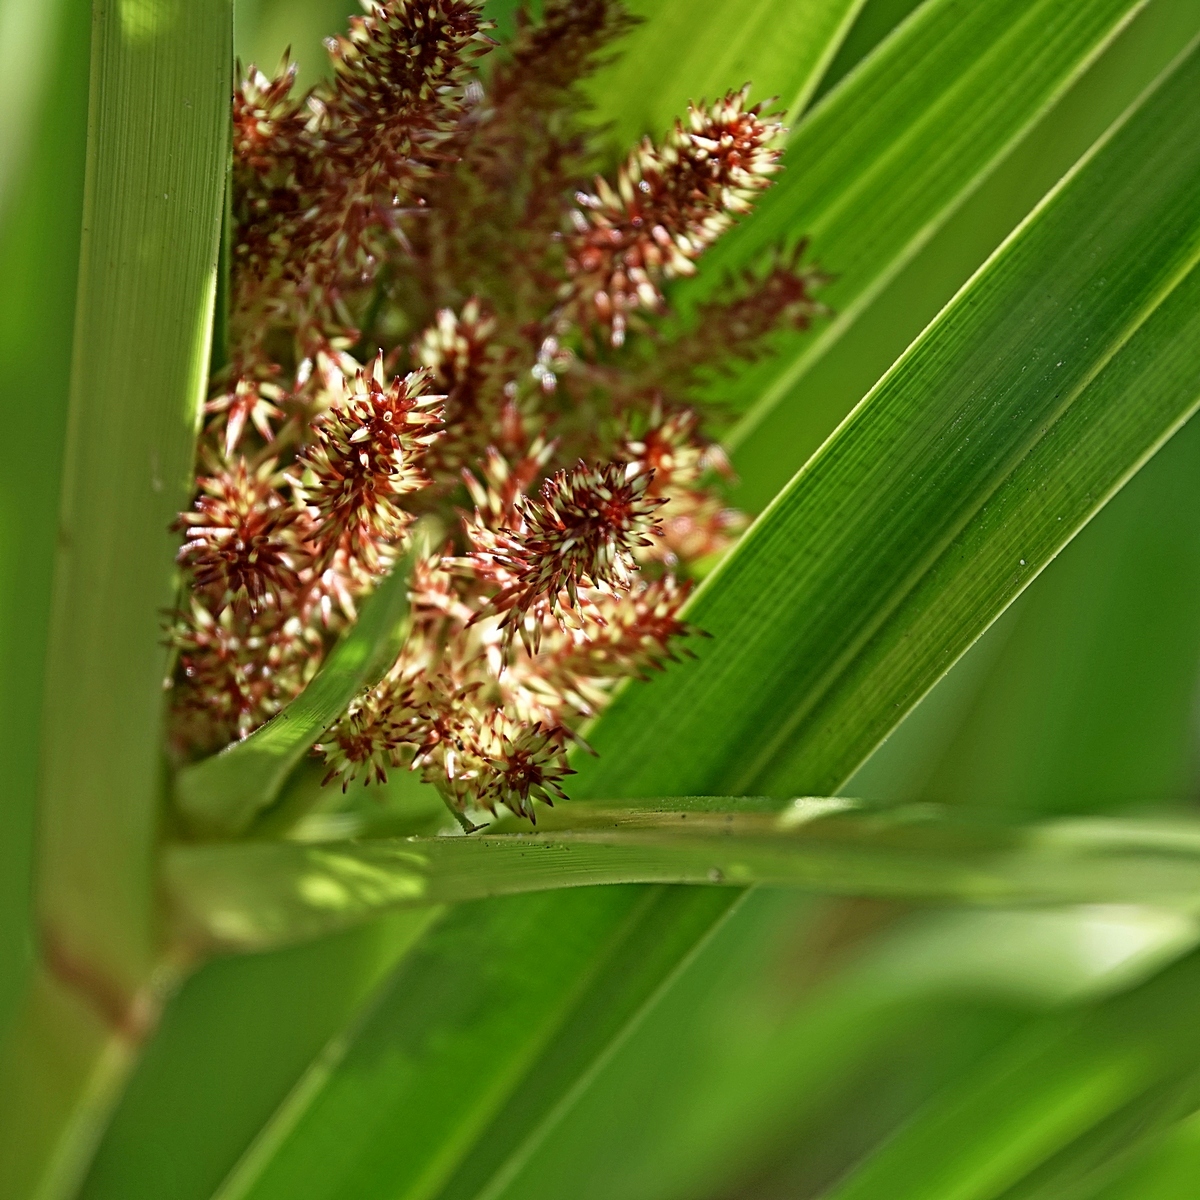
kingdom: Plantae
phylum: Tracheophyta
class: Liliopsida
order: Poales
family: Cyperaceae
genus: Cyperus
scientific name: Cyperus lucidus
